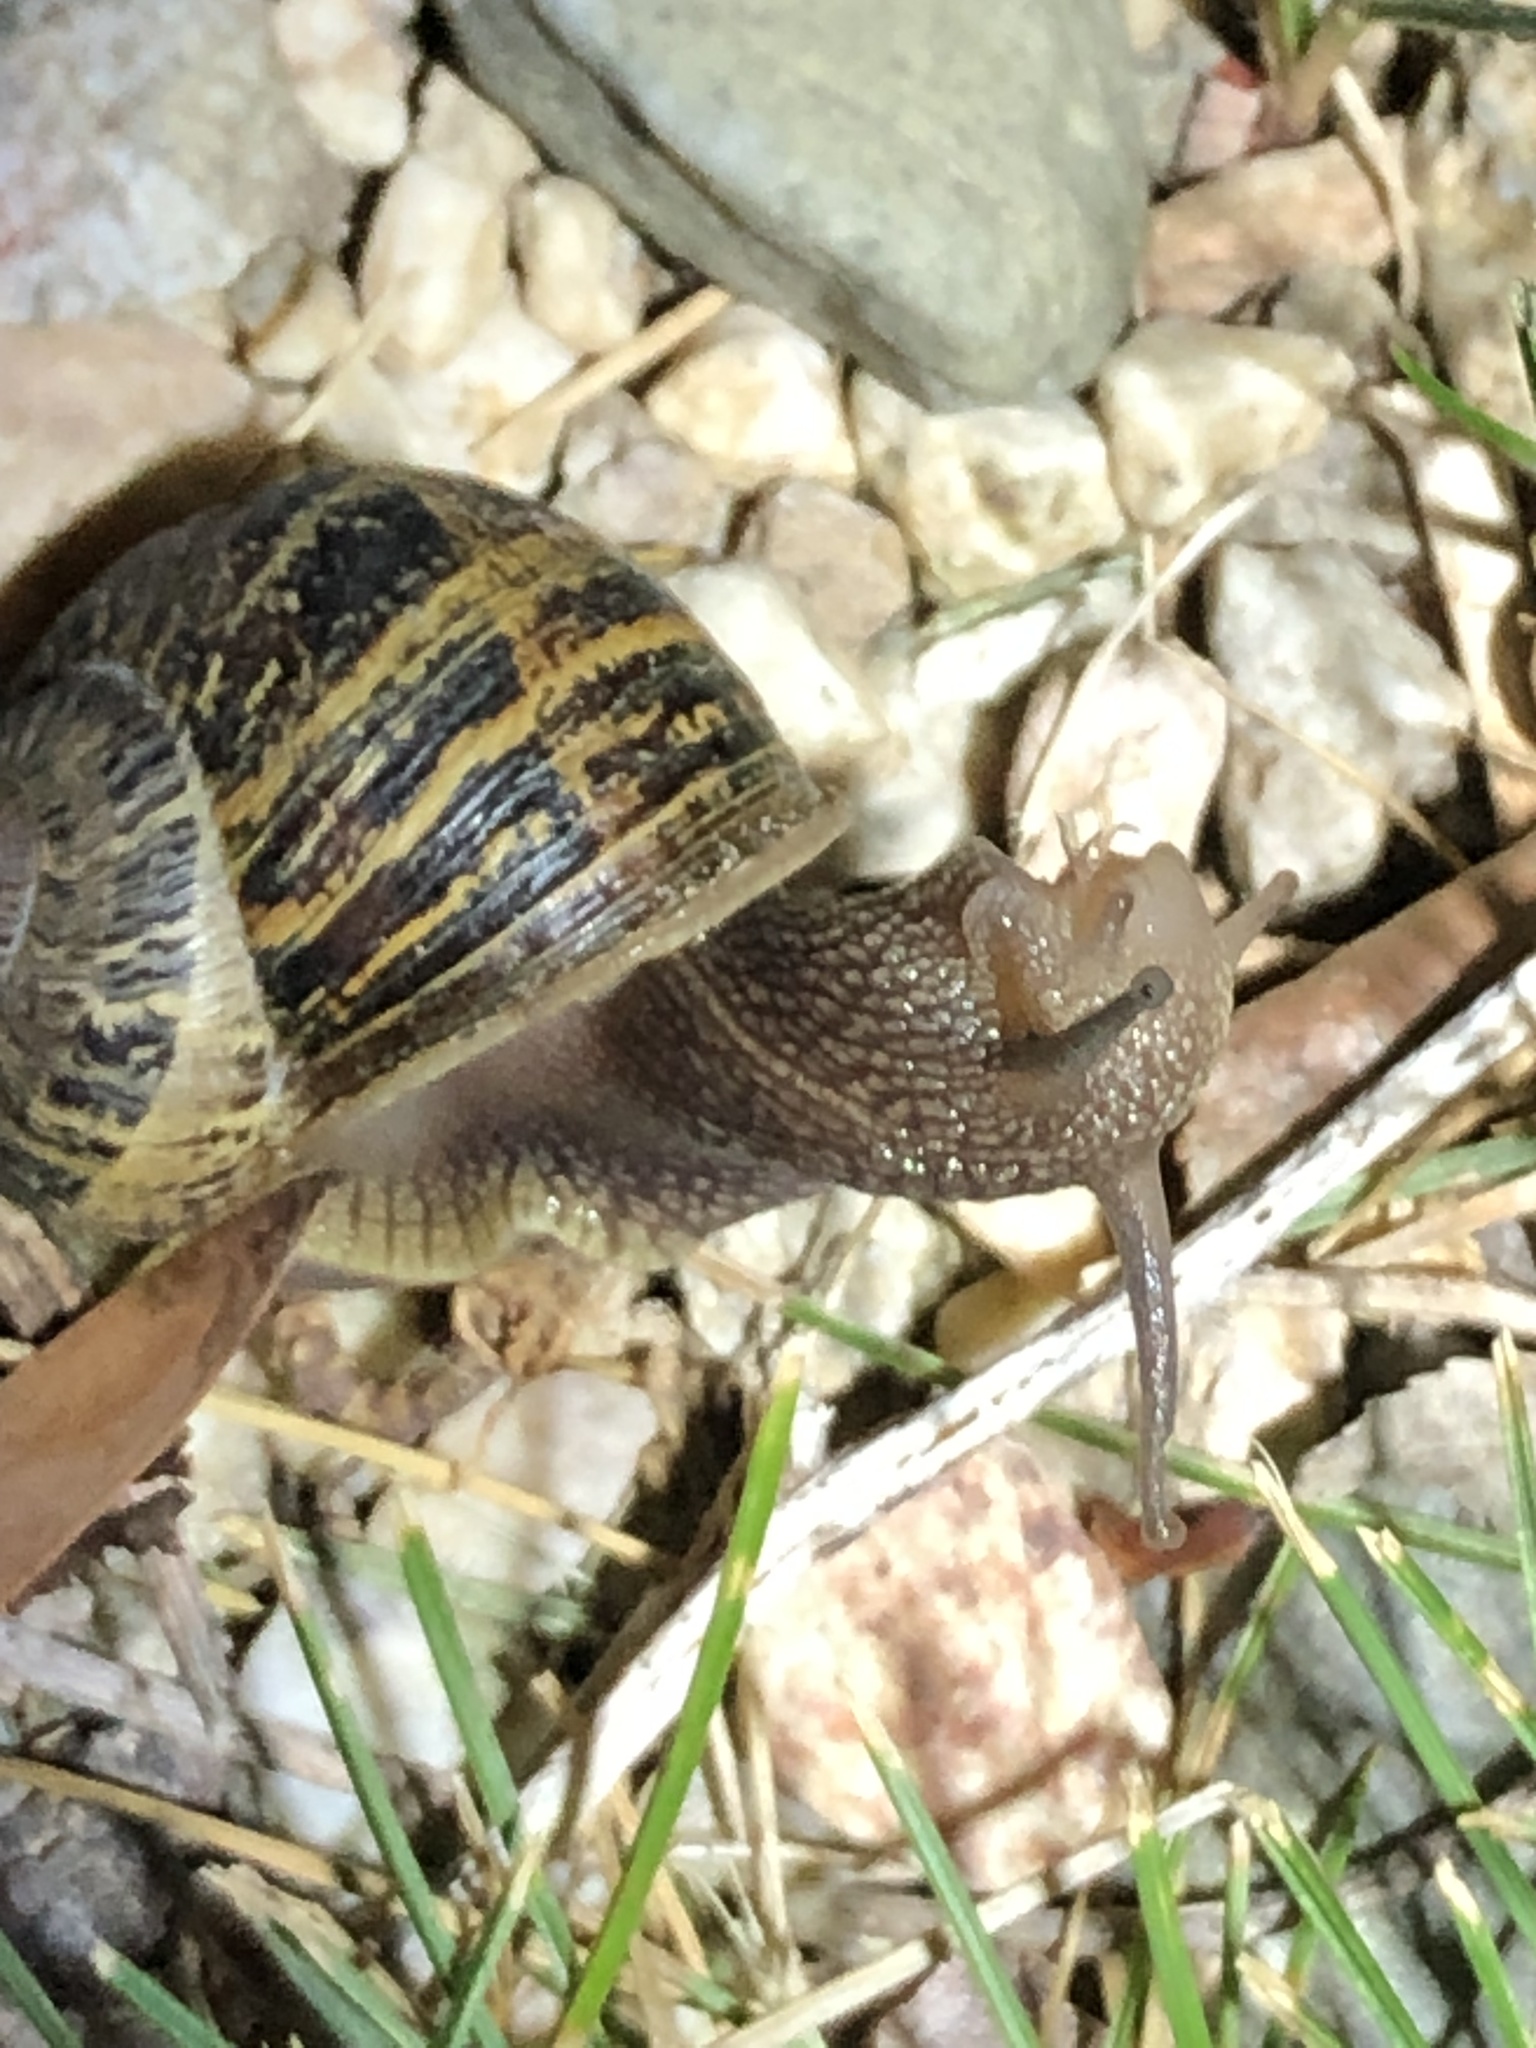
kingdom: Animalia
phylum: Mollusca
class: Gastropoda
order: Stylommatophora
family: Helicidae
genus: Cornu
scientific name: Cornu aspersum
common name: Brown garden snail
